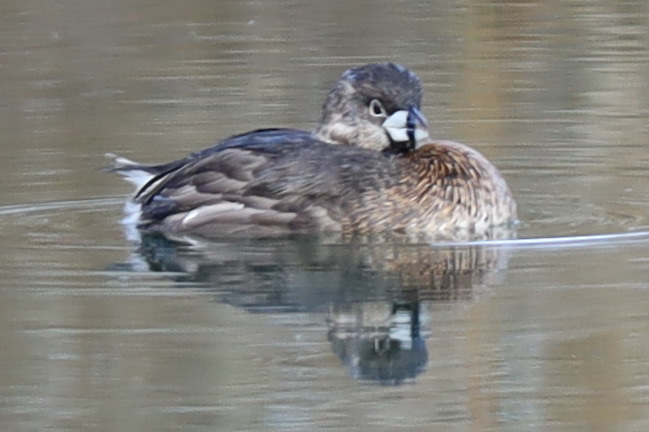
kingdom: Animalia
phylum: Chordata
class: Aves
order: Podicipediformes
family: Podicipedidae
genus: Podilymbus
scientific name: Podilymbus podiceps
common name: Pied-billed grebe
